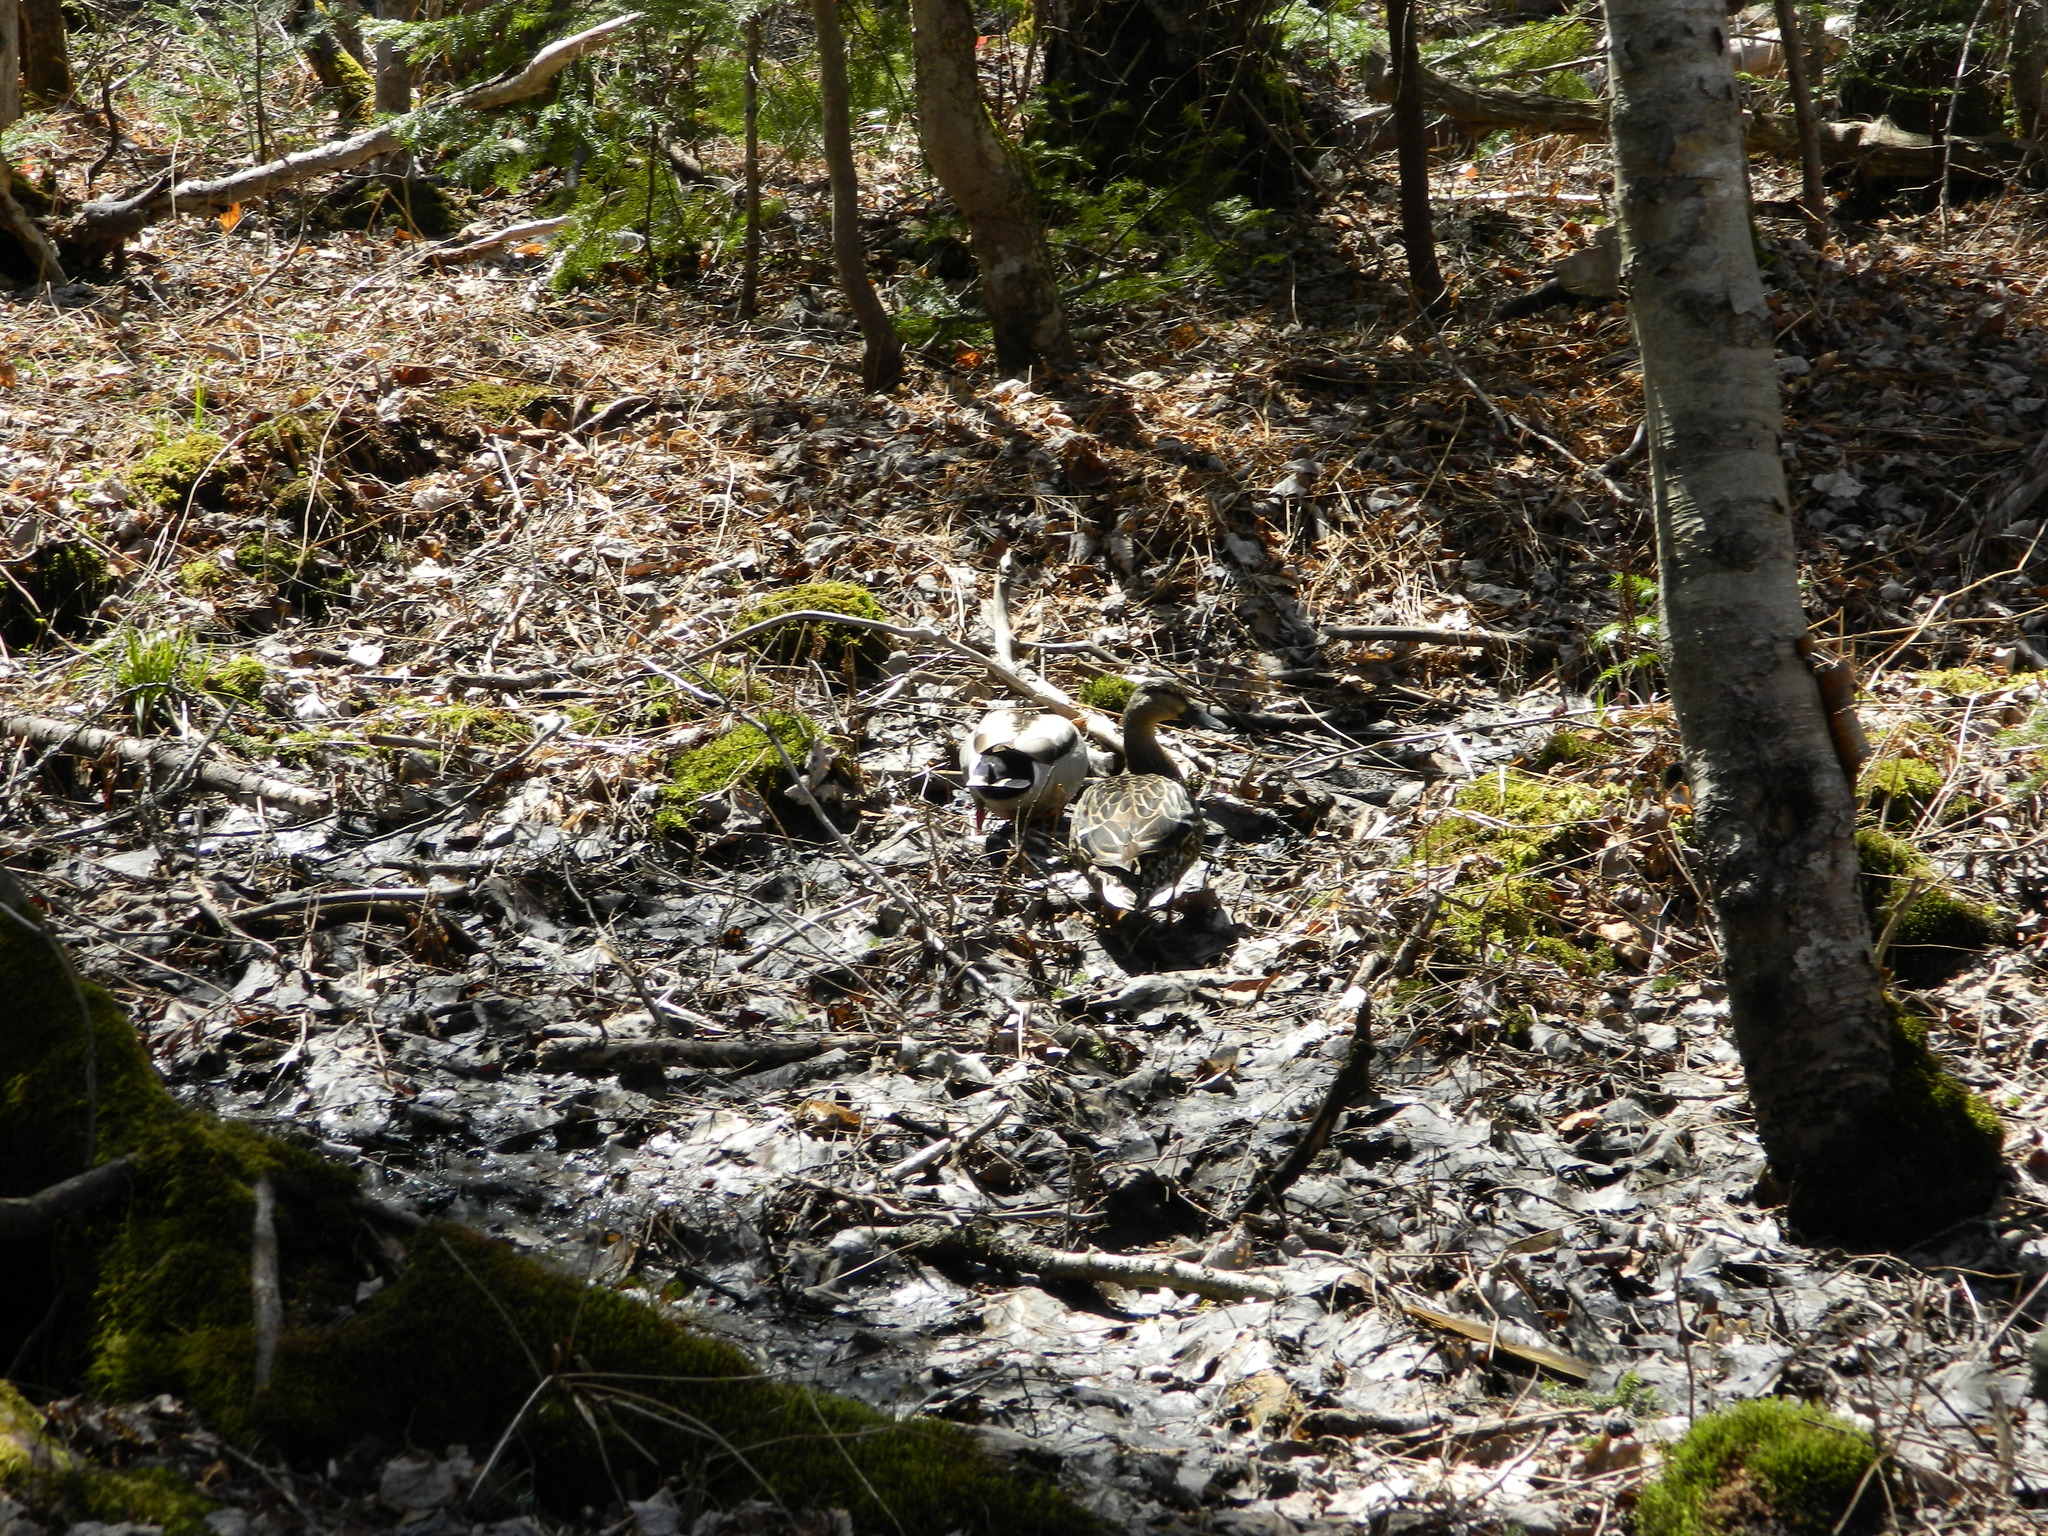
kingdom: Animalia
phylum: Chordata
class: Aves
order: Anseriformes
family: Anatidae
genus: Anas
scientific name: Anas platyrhynchos
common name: Mallard
